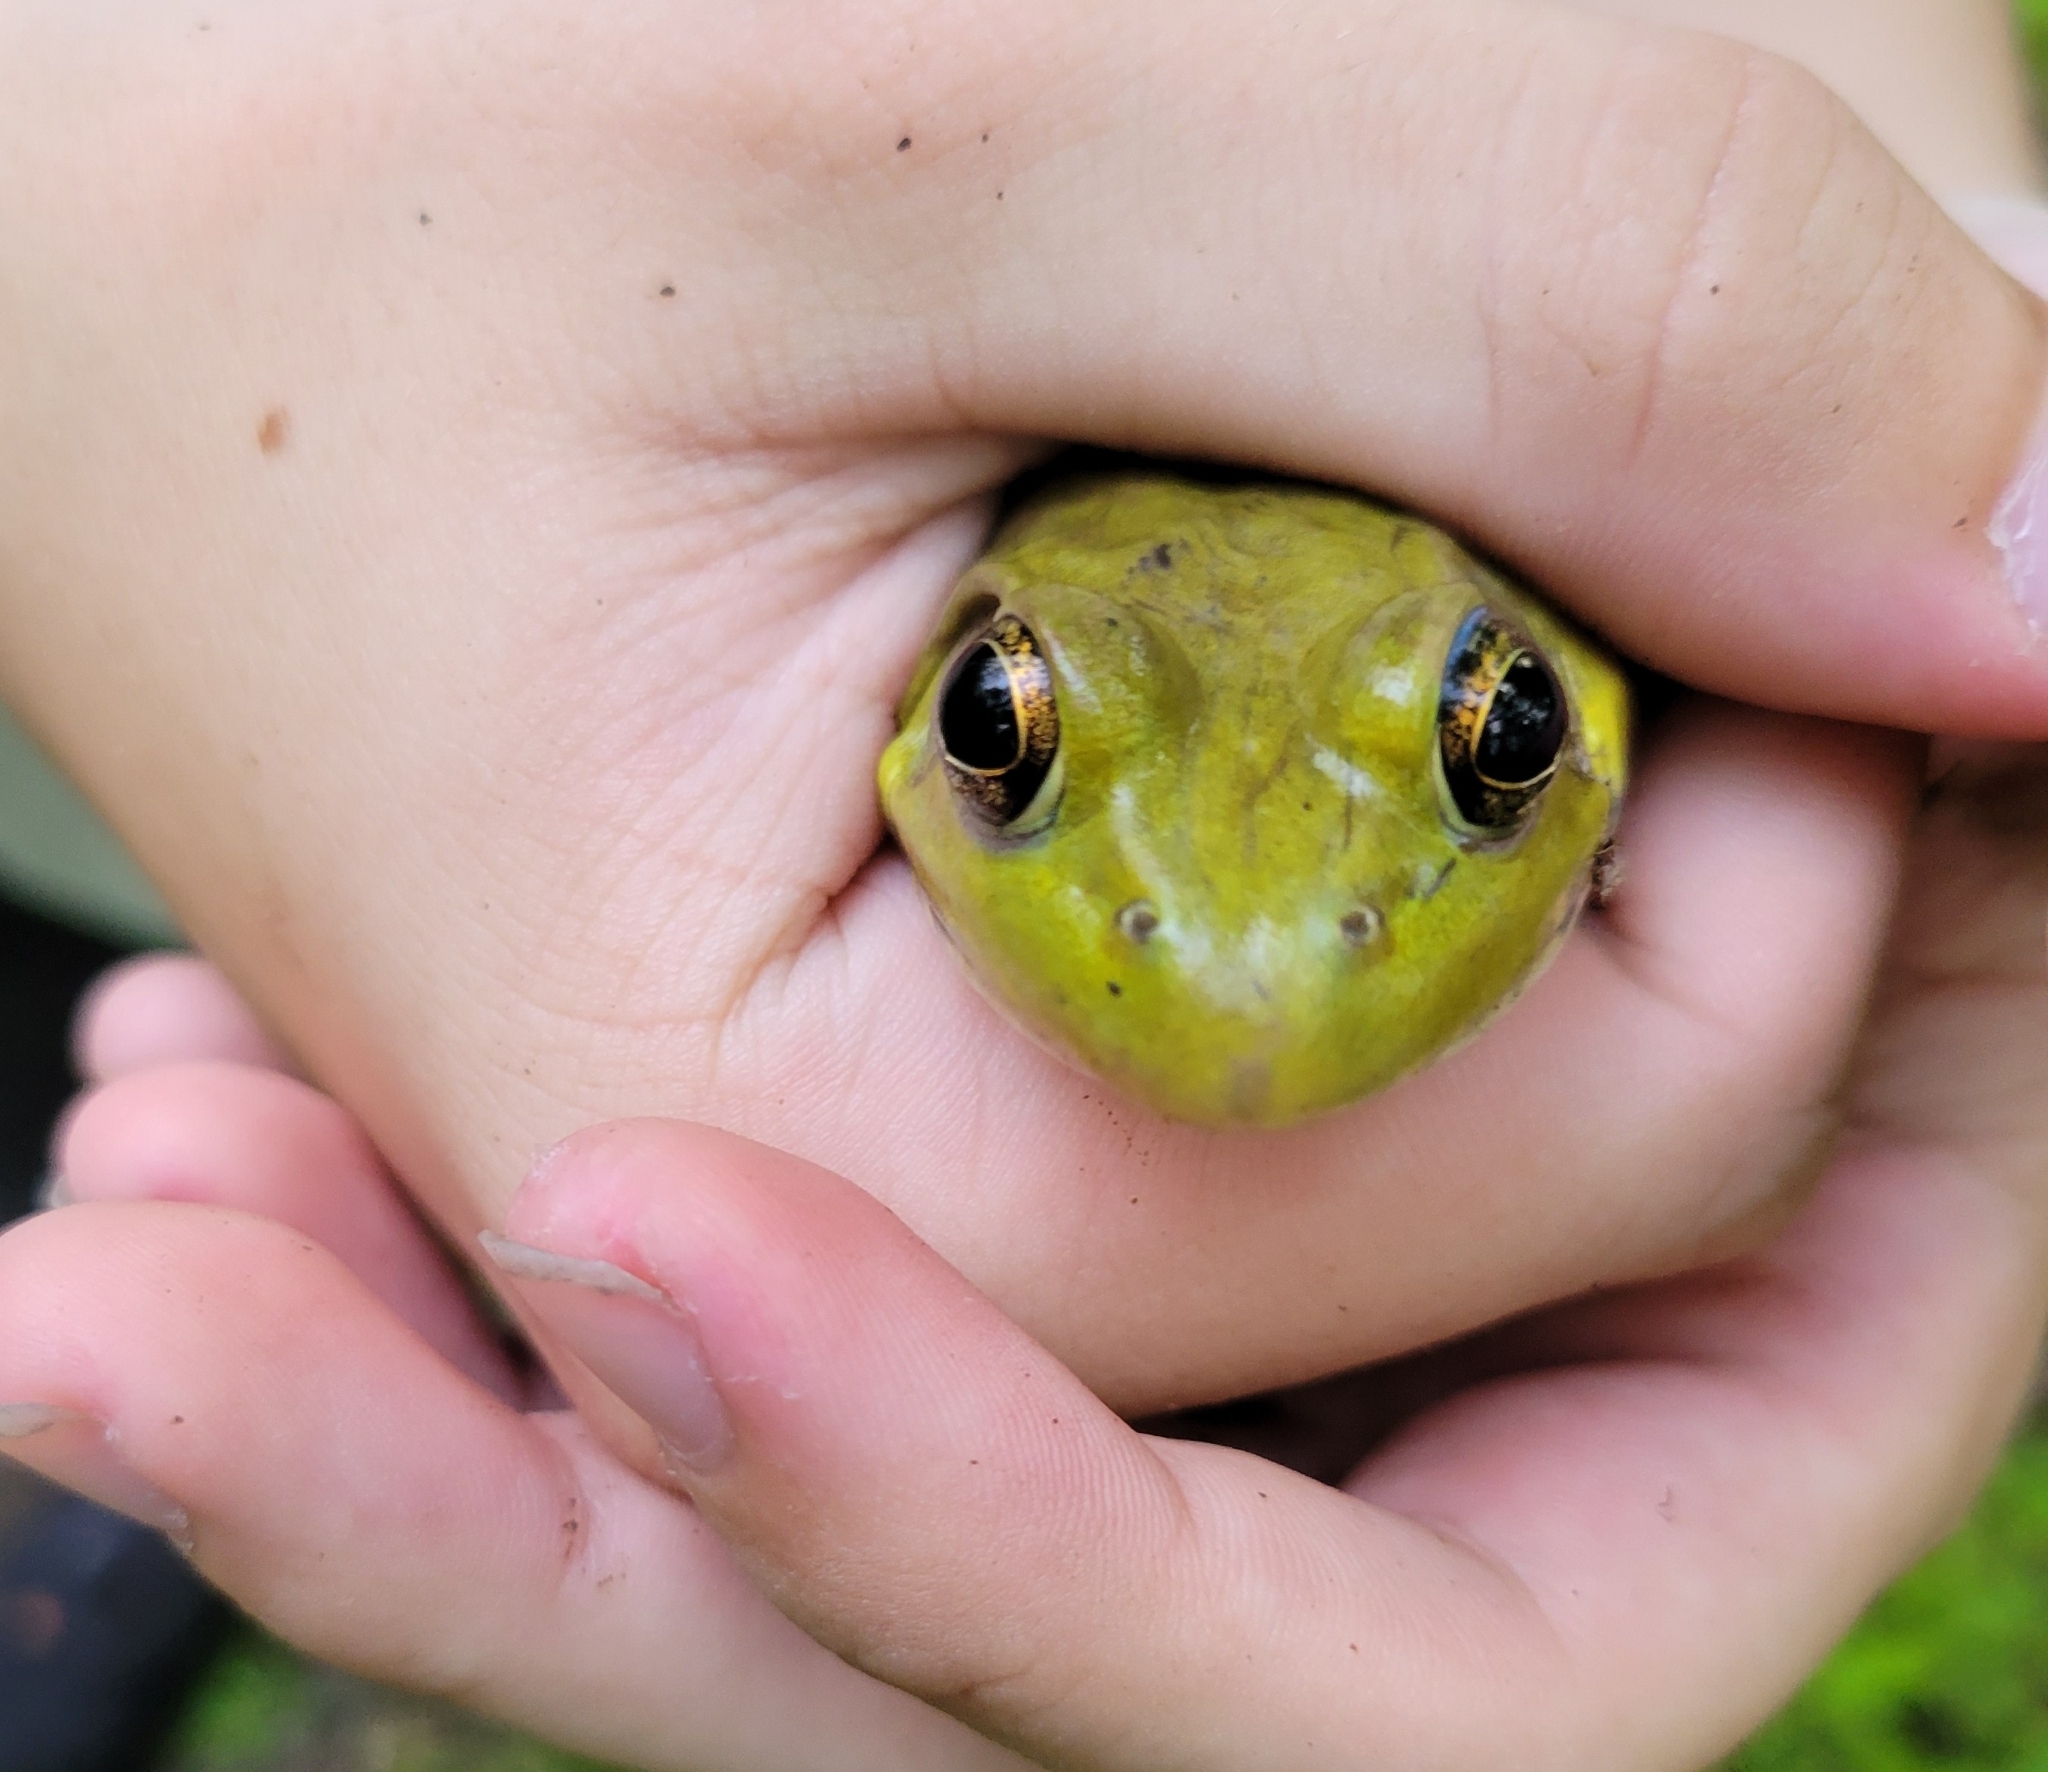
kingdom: Animalia
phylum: Chordata
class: Amphibia
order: Anura
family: Ranidae
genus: Lithobates
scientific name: Lithobates clamitans
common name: Green frog
